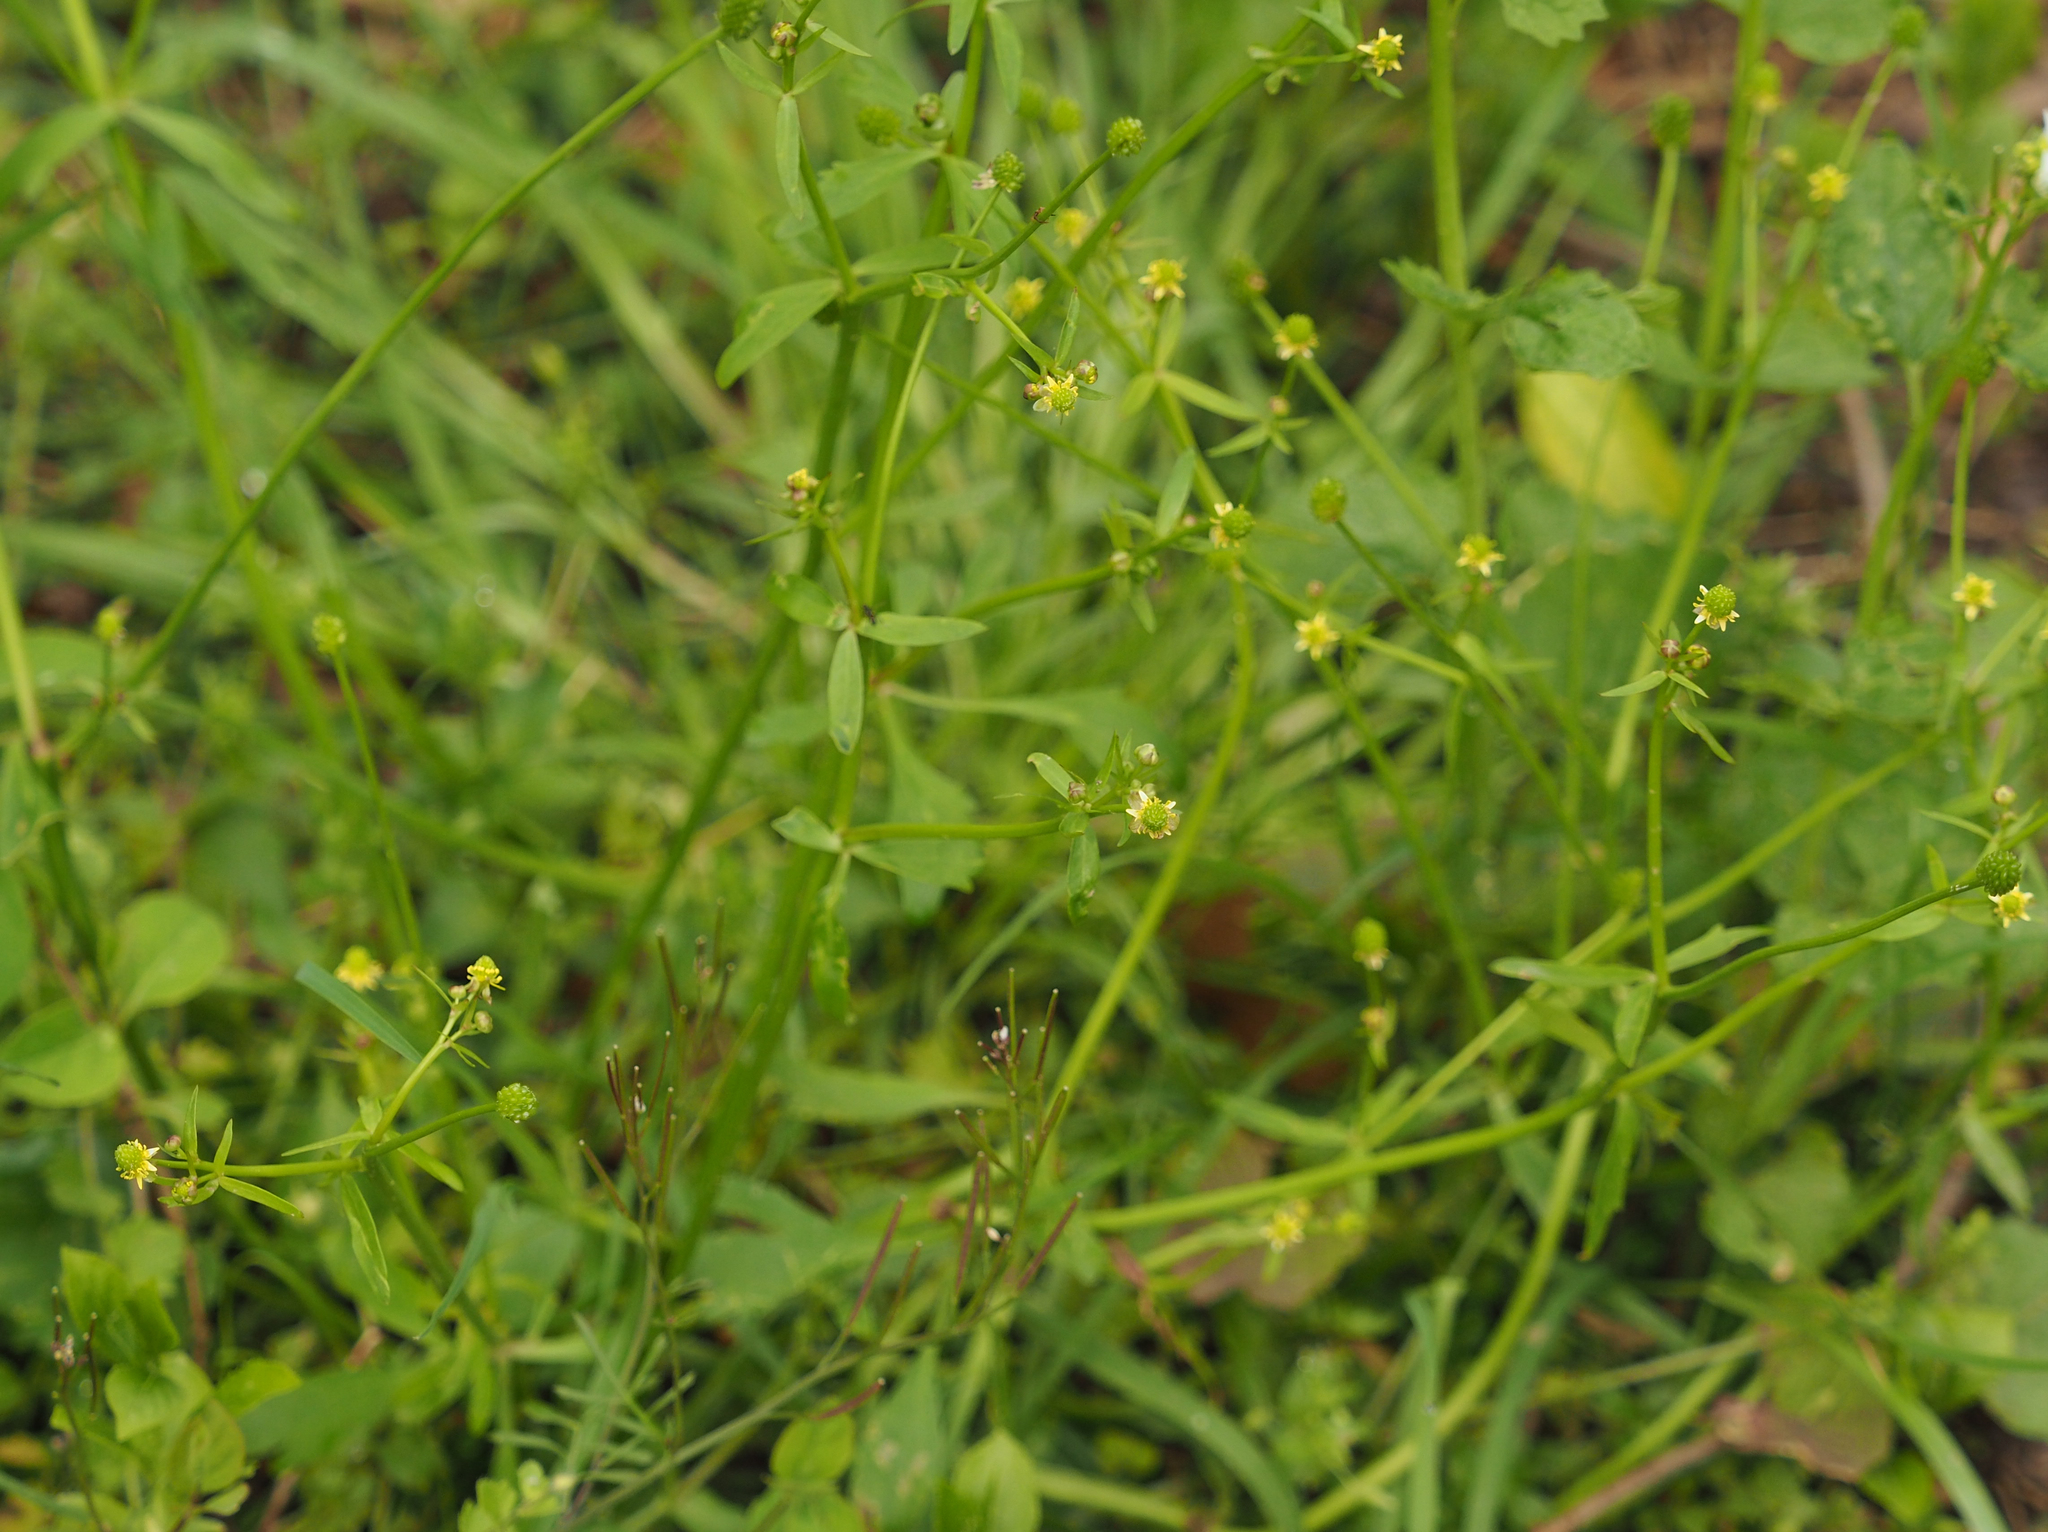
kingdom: Plantae
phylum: Tracheophyta
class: Magnoliopsida
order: Ranunculales
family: Ranunculaceae
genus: Ranunculus
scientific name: Ranunculus abortivus
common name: Early wood buttercup
